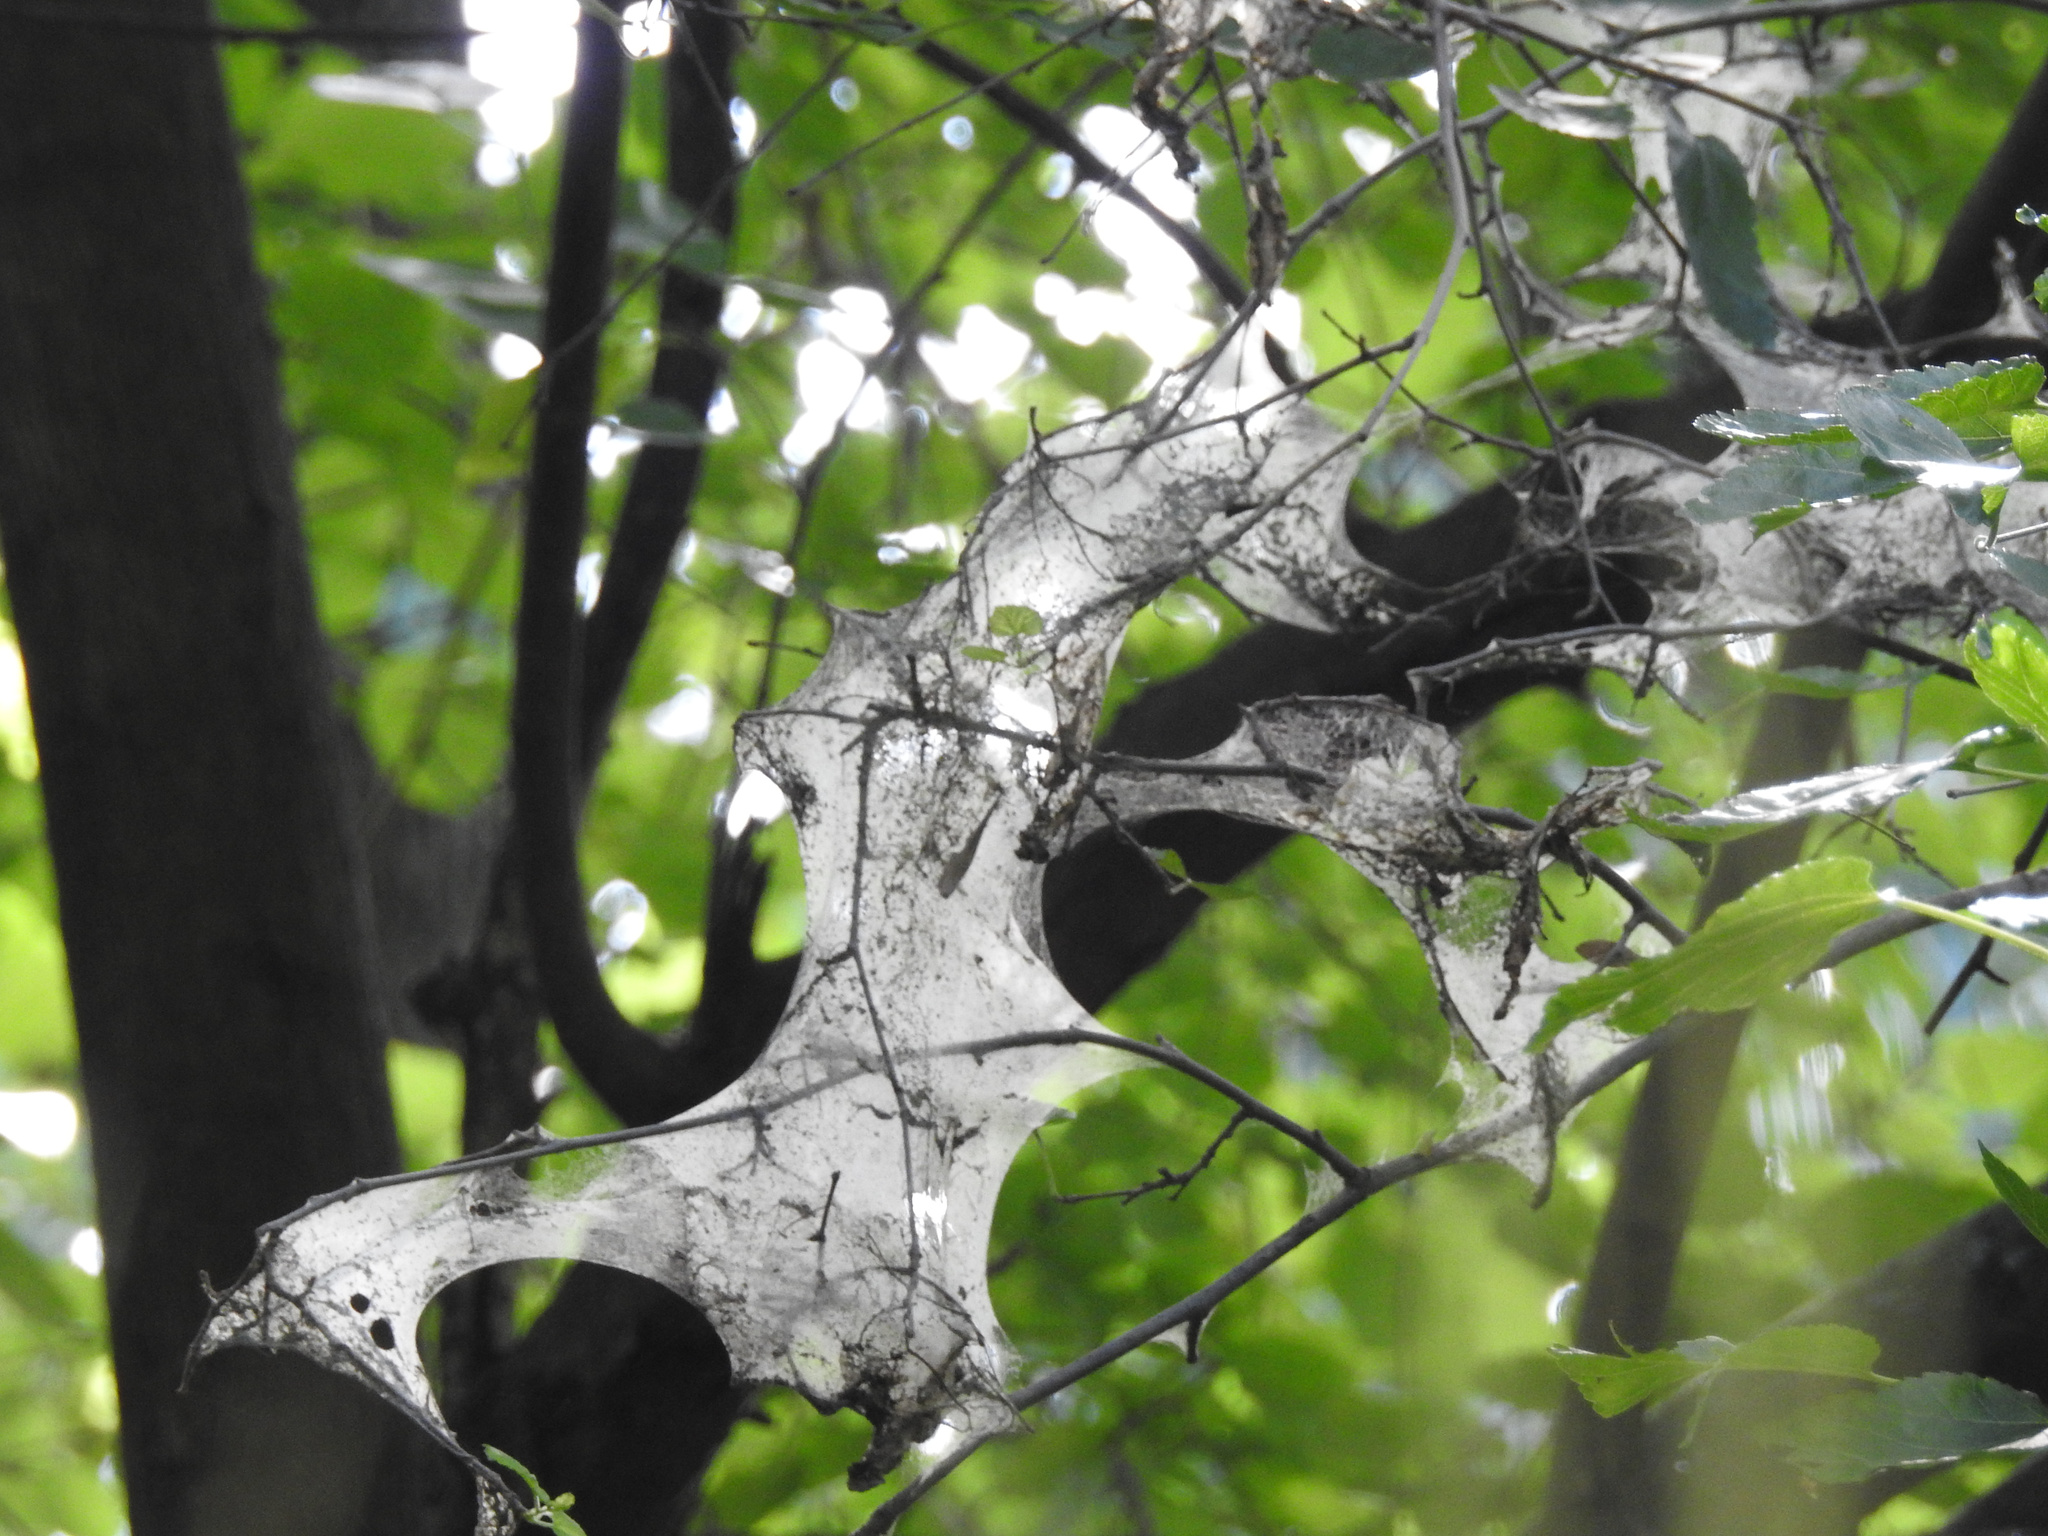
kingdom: Animalia
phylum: Arthropoda
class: Insecta
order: Lepidoptera
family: Erebidae
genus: Hyphantria
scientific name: Hyphantria cunea
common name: American white moth
